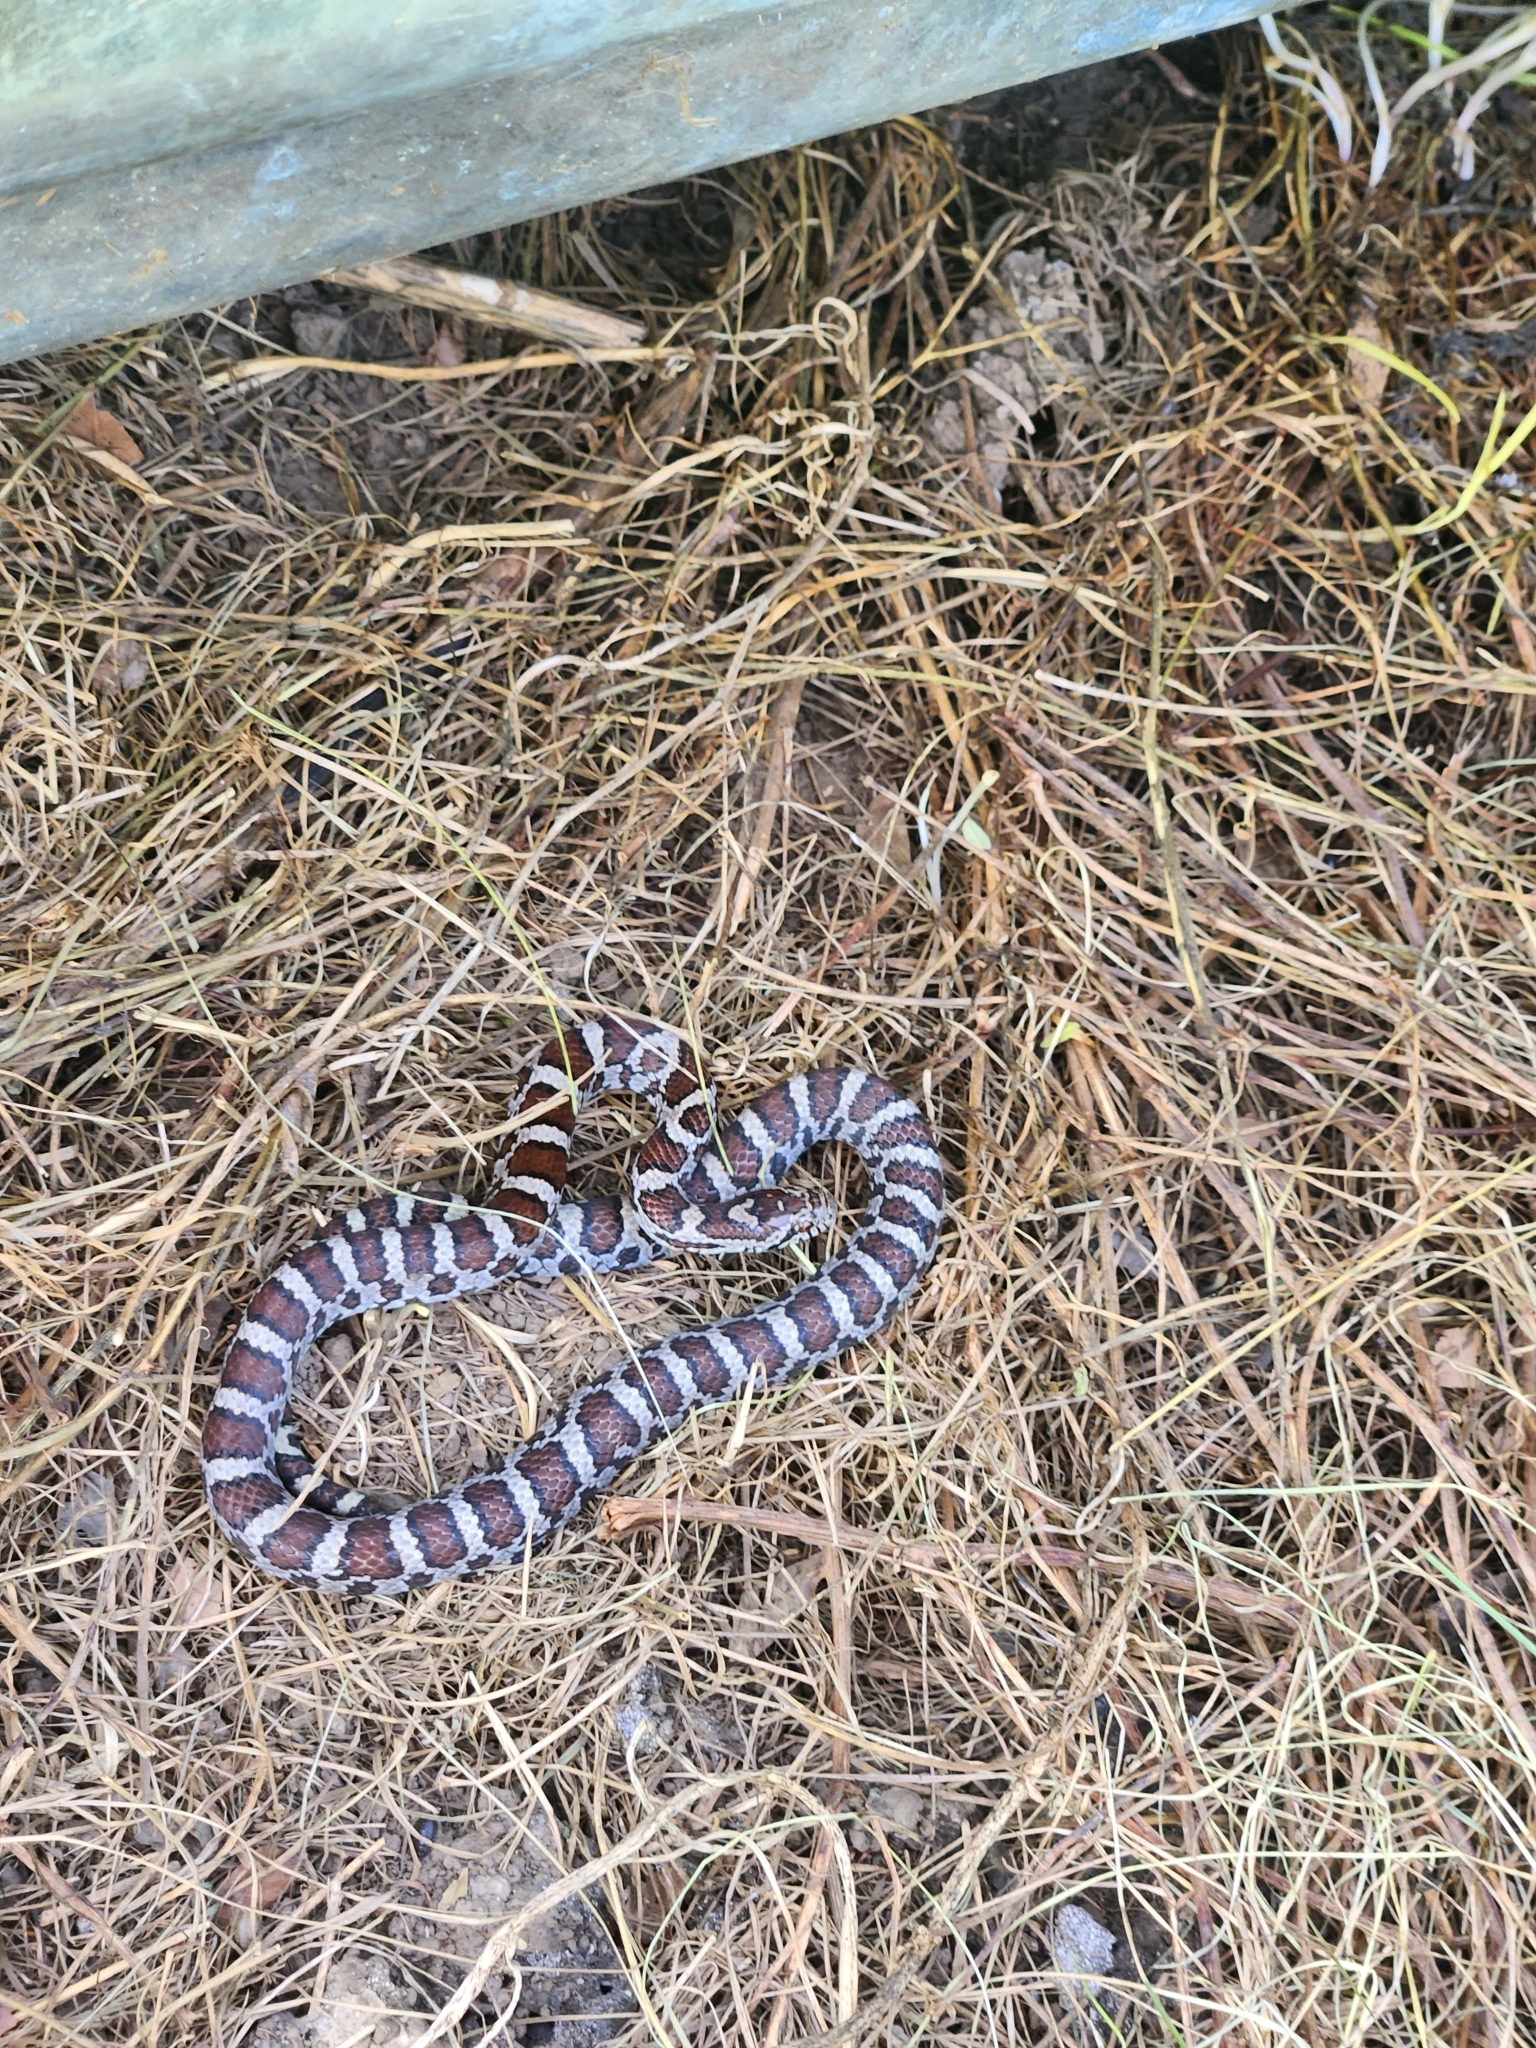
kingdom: Animalia
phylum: Chordata
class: Squamata
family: Colubridae
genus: Lampropeltis
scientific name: Lampropeltis triangulum
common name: Eastern milksnake
